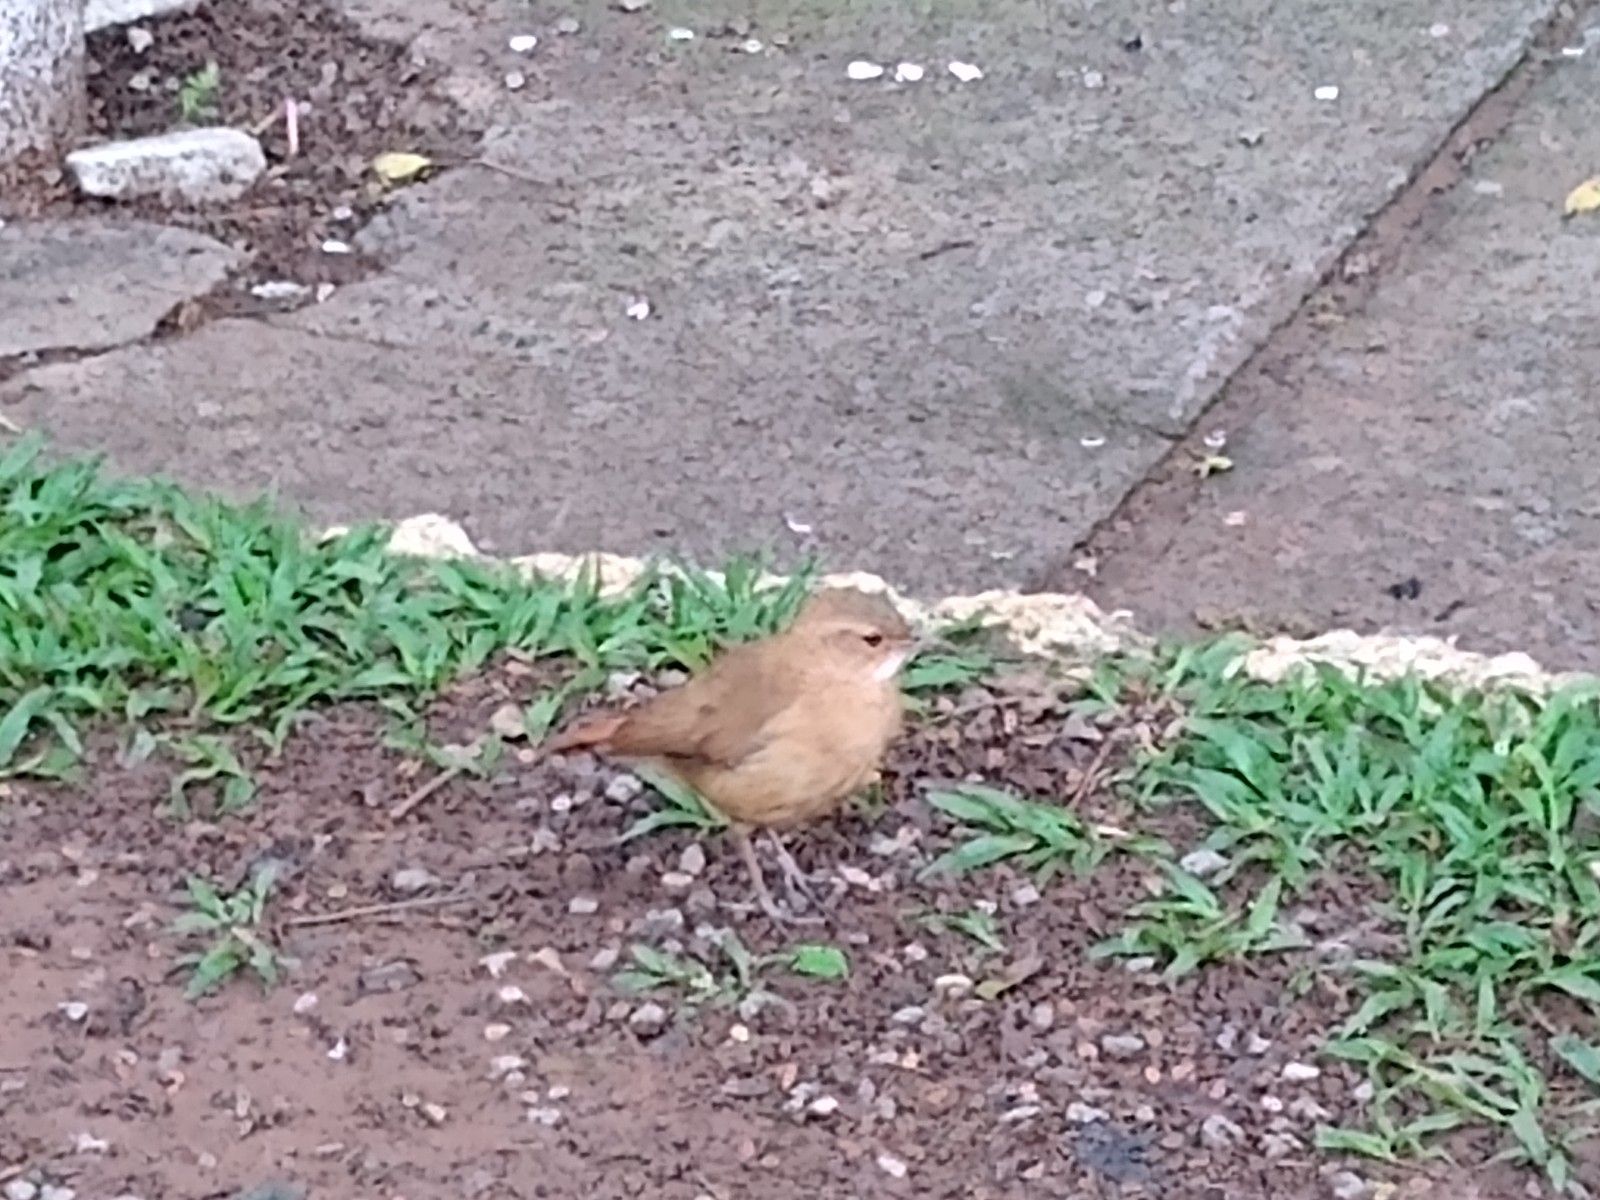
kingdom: Animalia
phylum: Chordata
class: Aves
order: Passeriformes
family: Furnariidae
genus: Furnarius
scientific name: Furnarius rufus
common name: Rufous hornero
